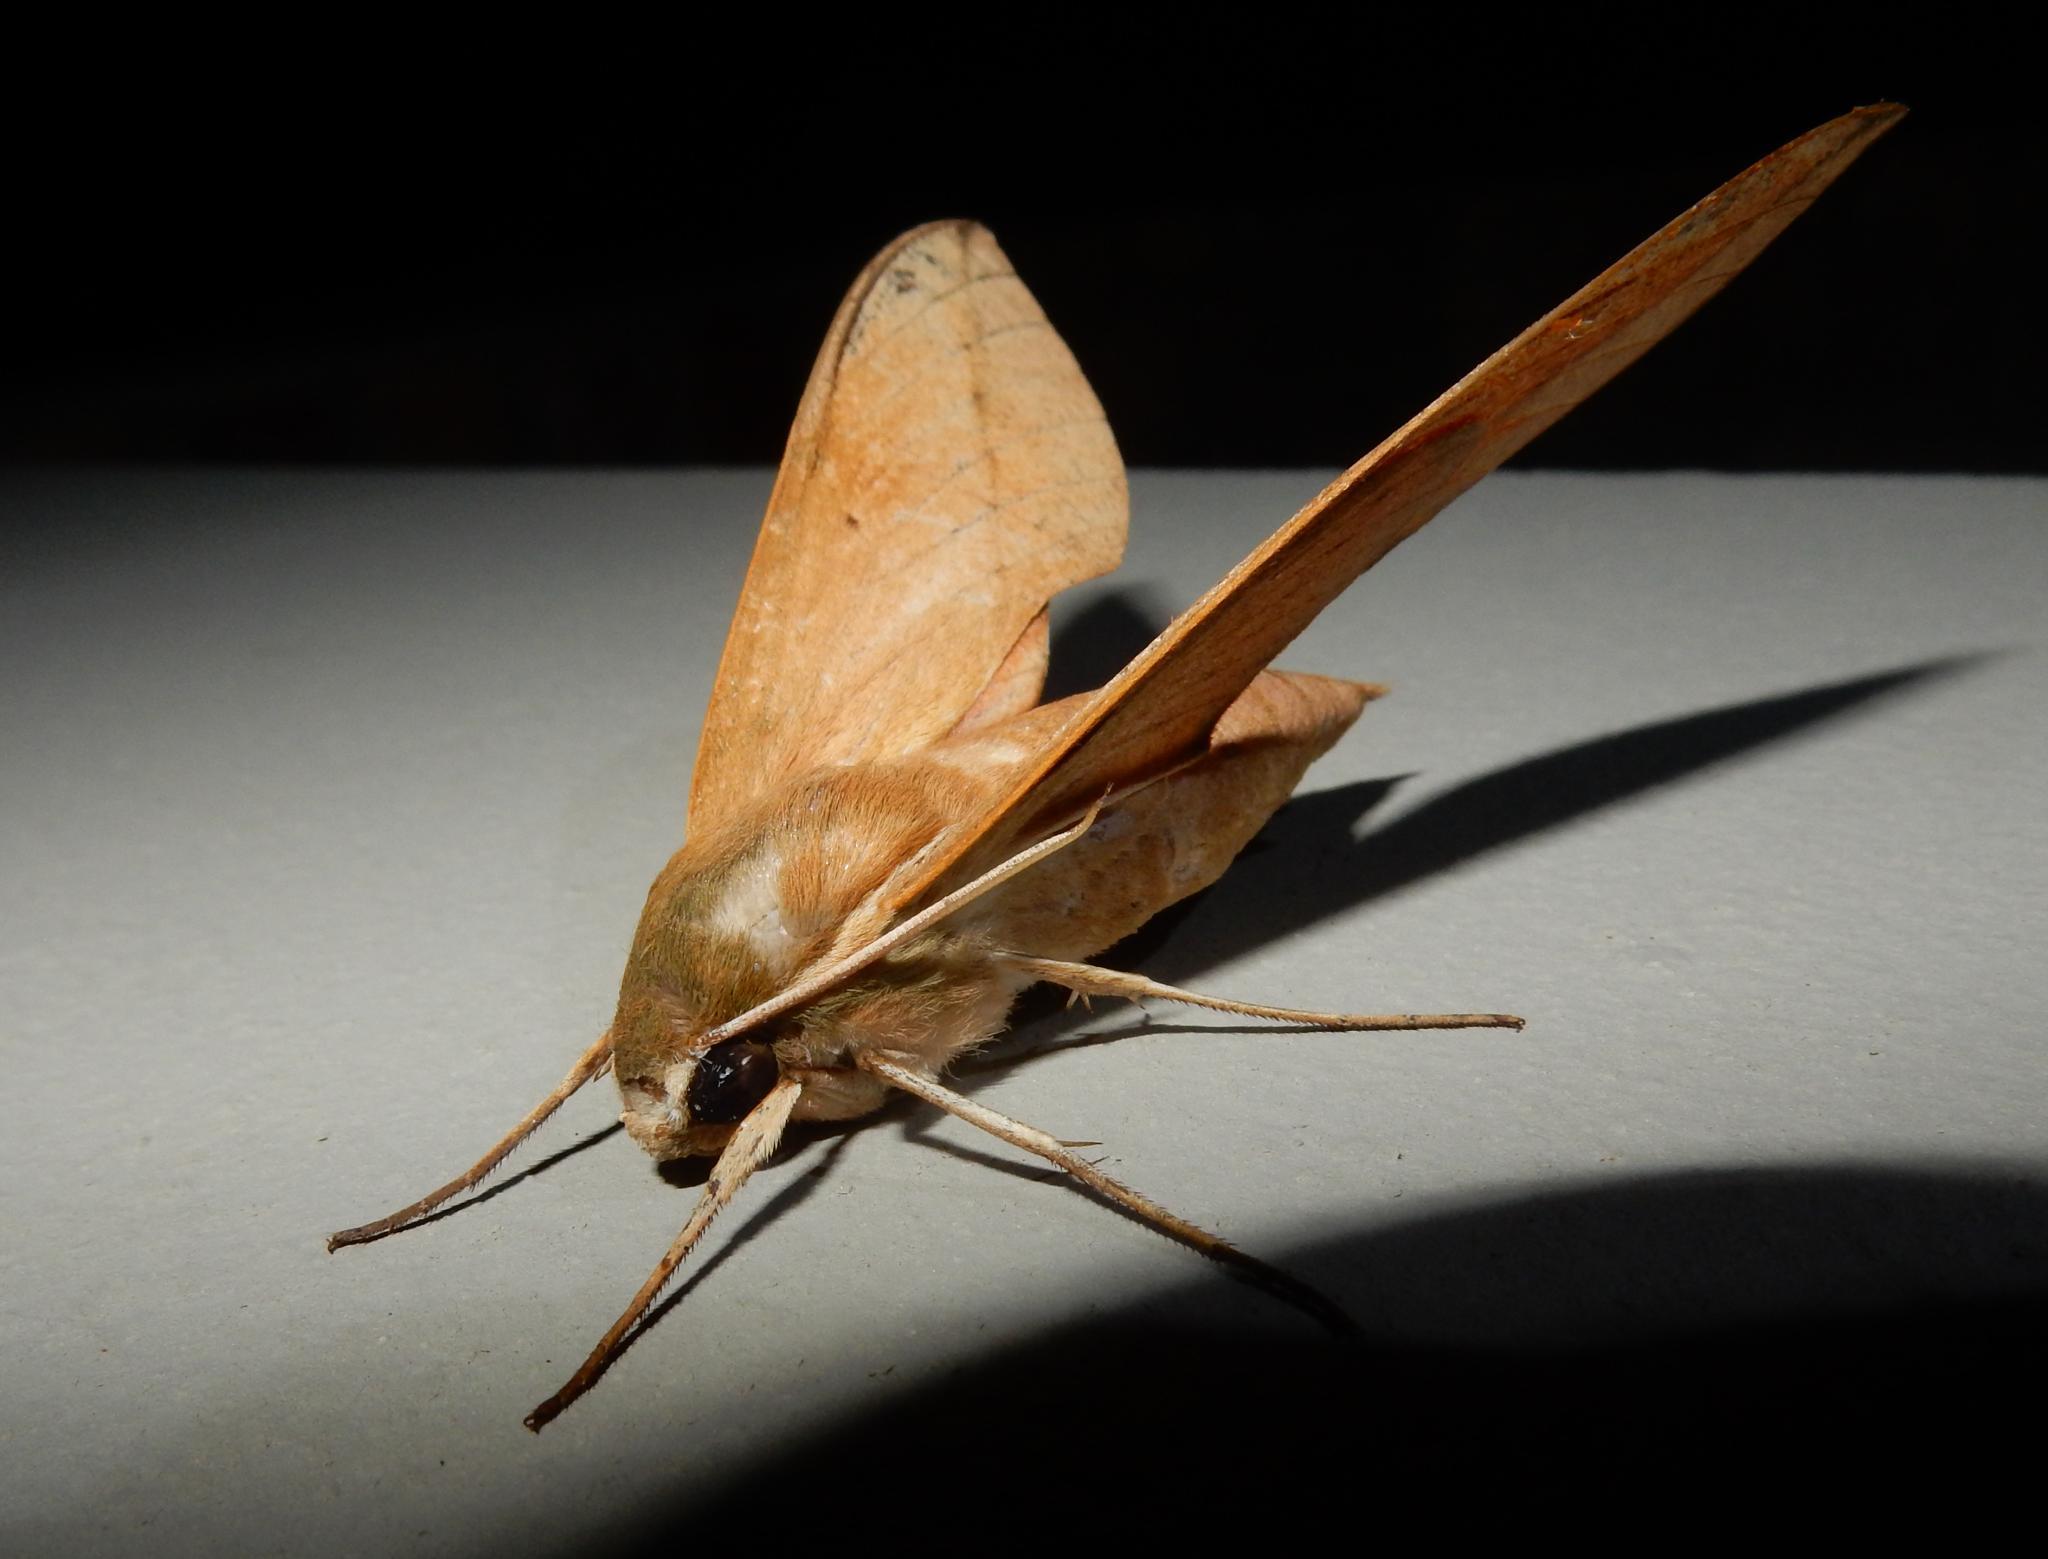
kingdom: Animalia
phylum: Arthropoda
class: Insecta
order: Lepidoptera
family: Sphingidae
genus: Theretra
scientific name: Theretra capensis
